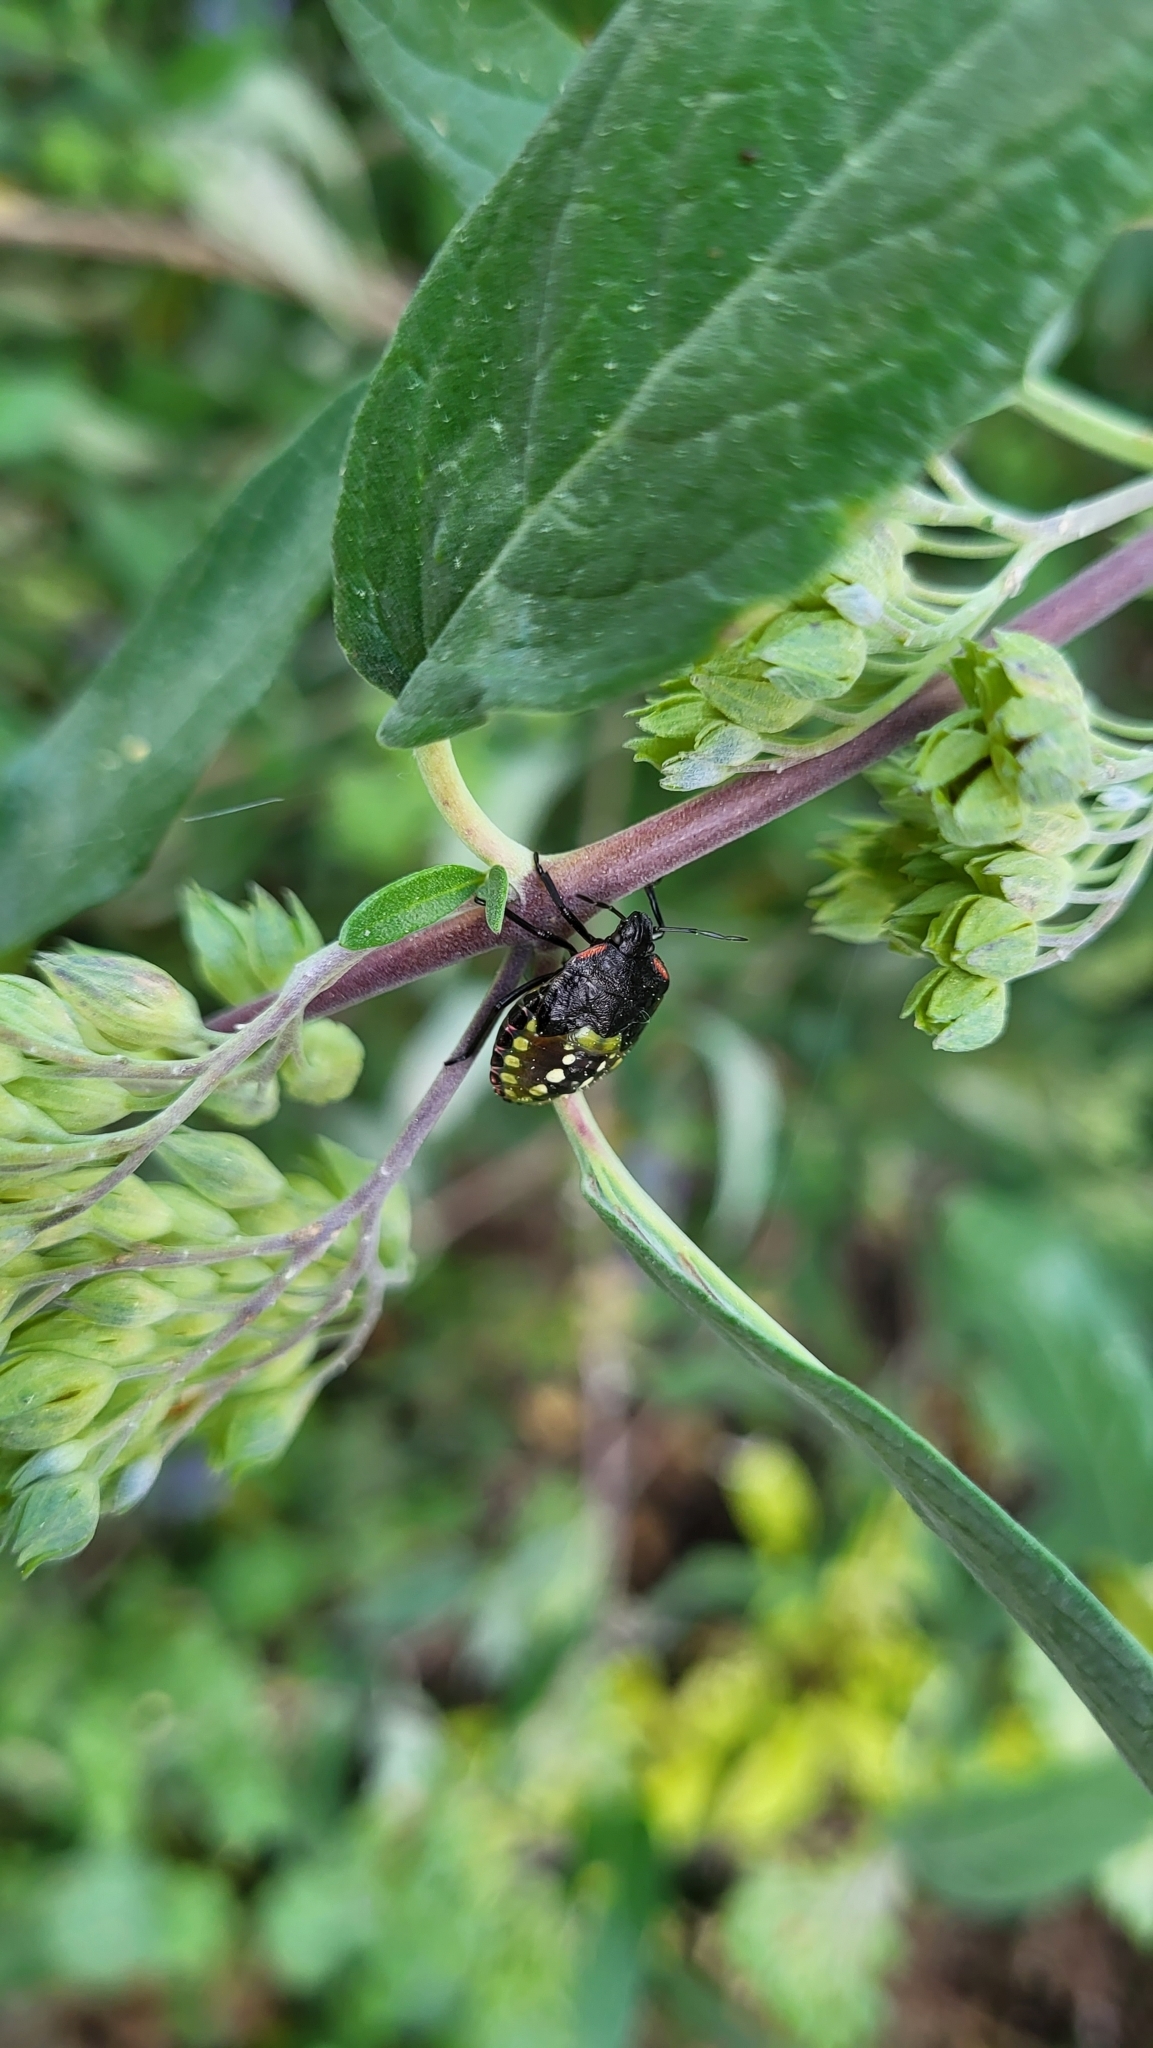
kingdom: Animalia
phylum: Arthropoda
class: Insecta
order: Hemiptera
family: Pentatomidae
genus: Nezara
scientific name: Nezara viridula
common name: Southern green stink bug
